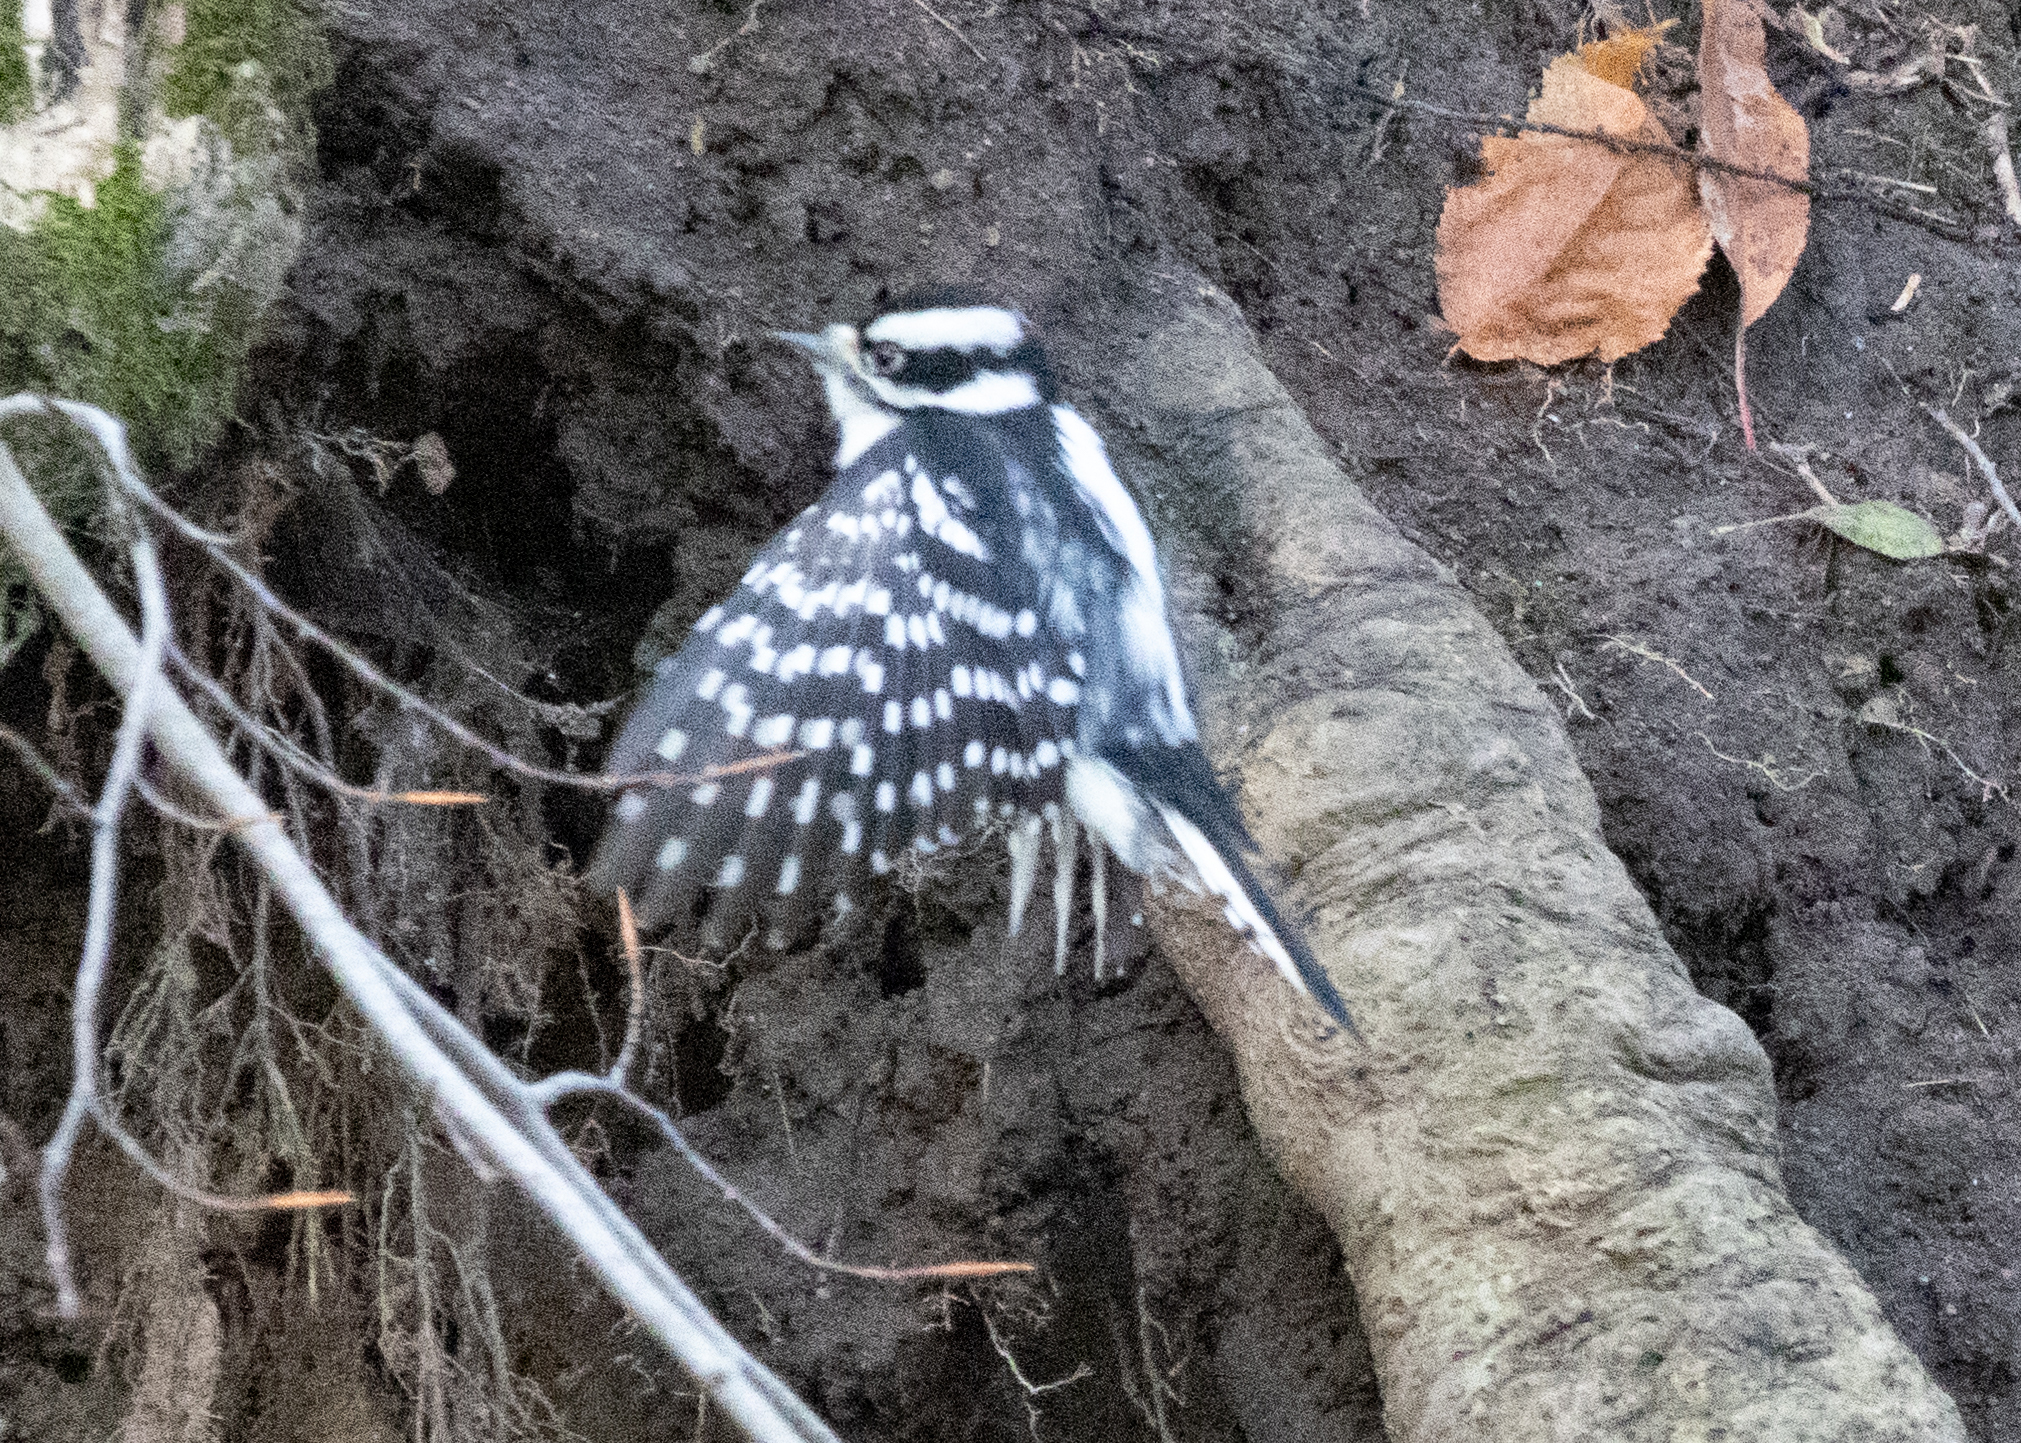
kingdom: Animalia
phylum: Chordata
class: Aves
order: Piciformes
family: Picidae
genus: Dryobates
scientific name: Dryobates pubescens
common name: Downy woodpecker
